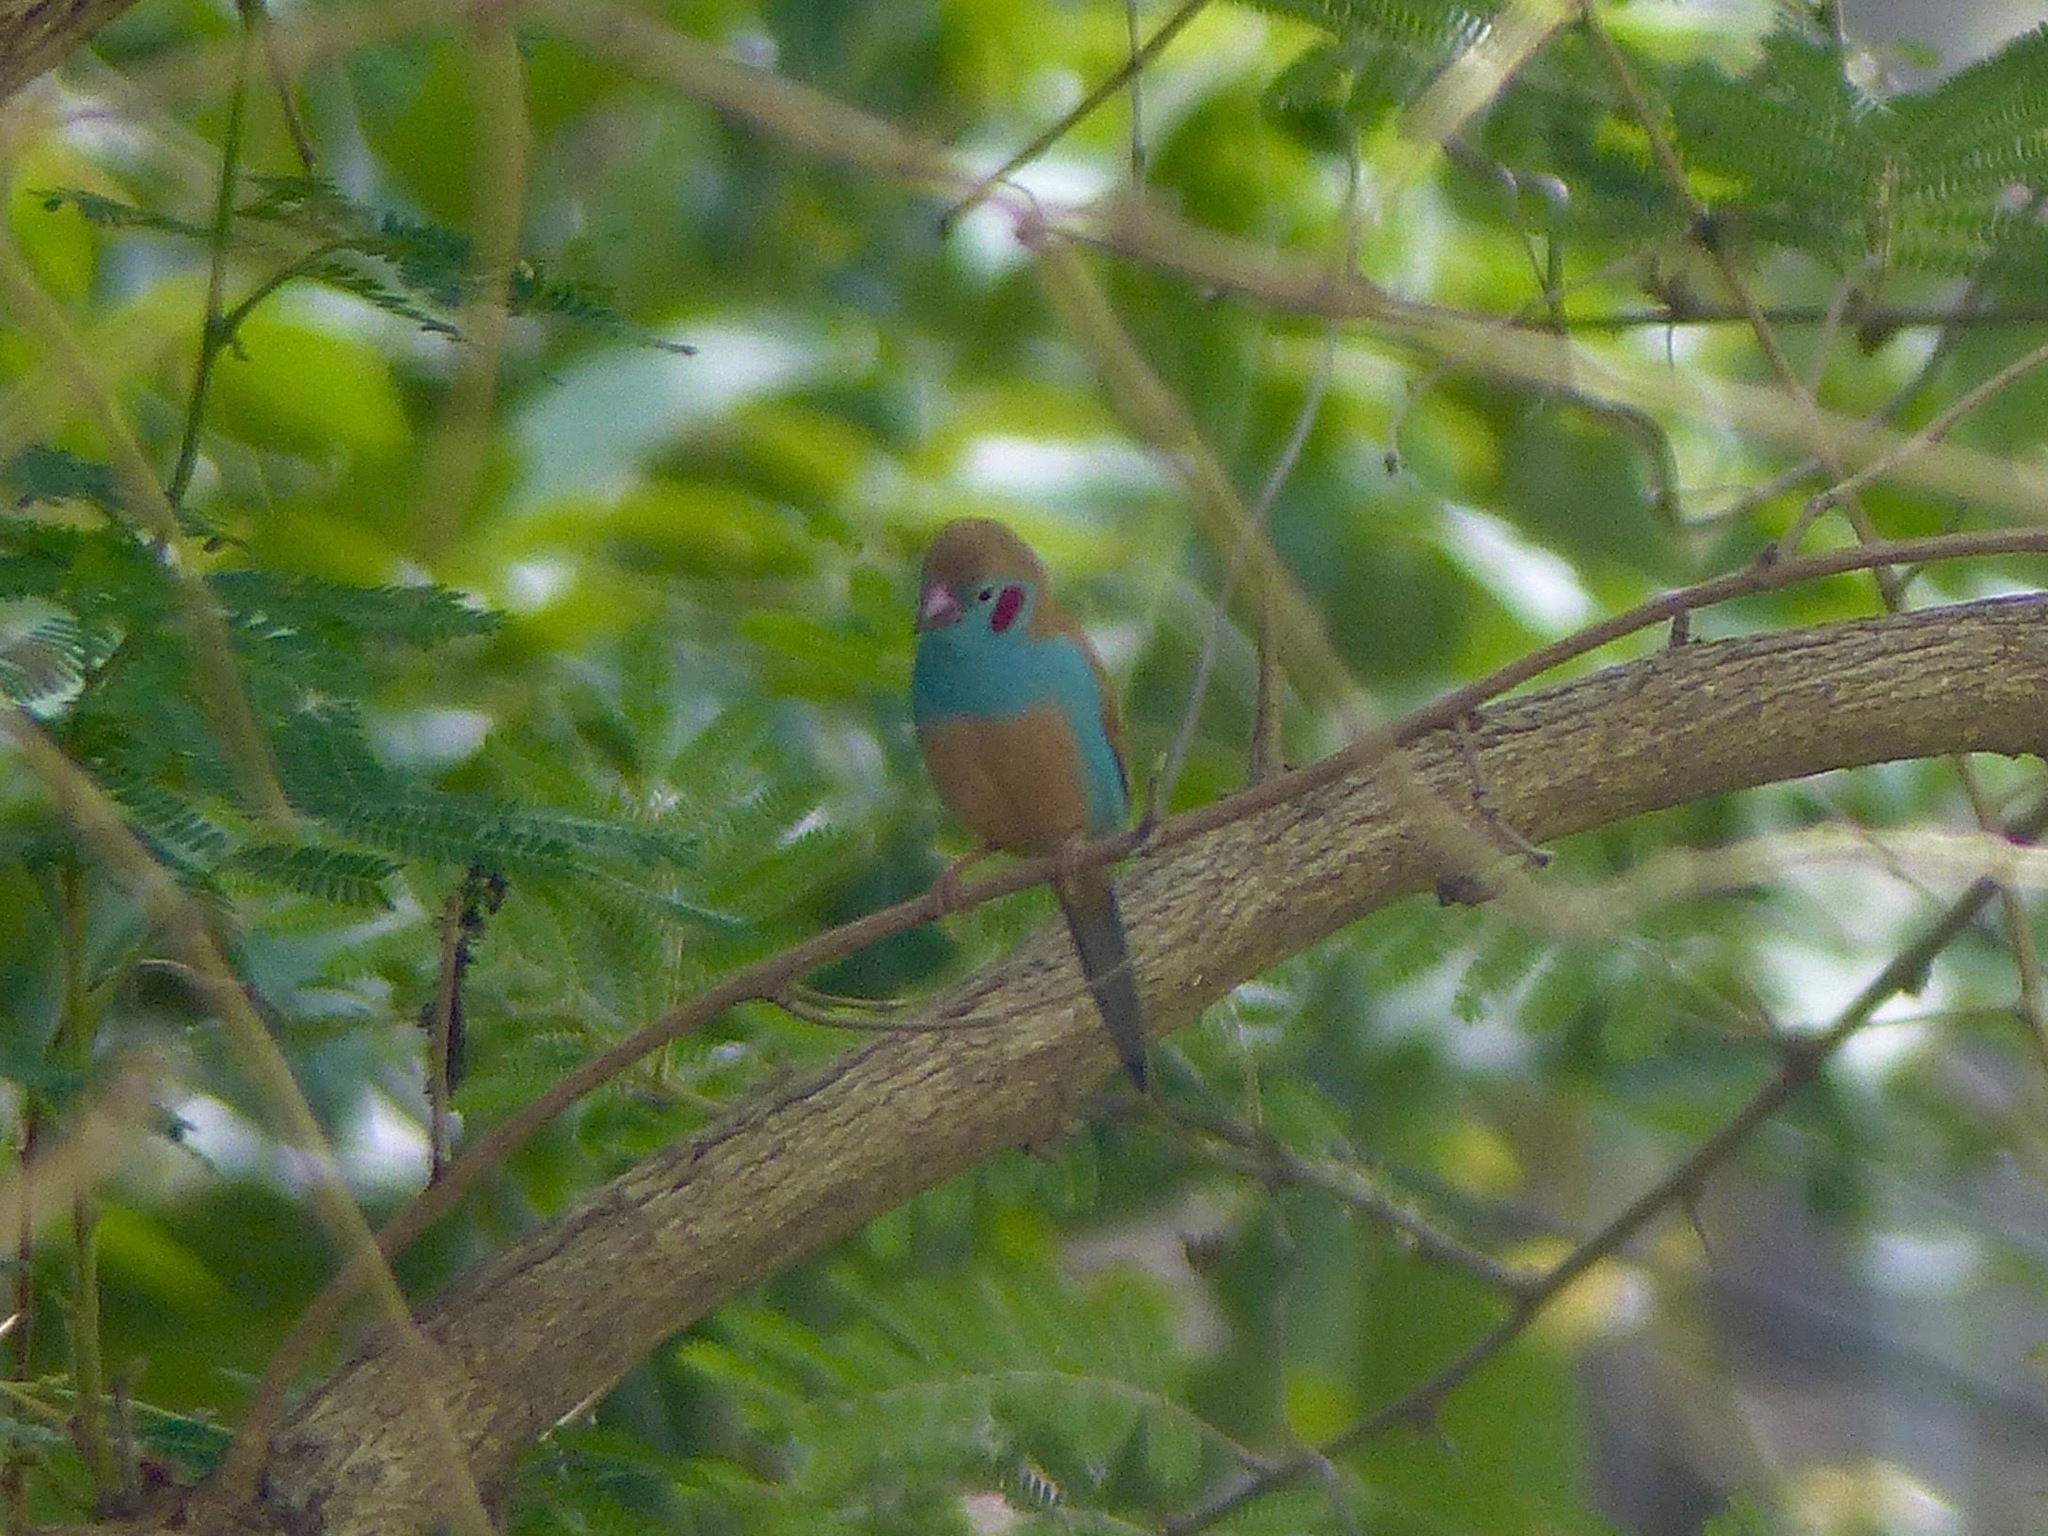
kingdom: Animalia
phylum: Chordata
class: Aves
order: Passeriformes
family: Estrildidae
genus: Uraeginthus
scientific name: Uraeginthus bengalus
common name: Red-cheeked cordon-bleu
